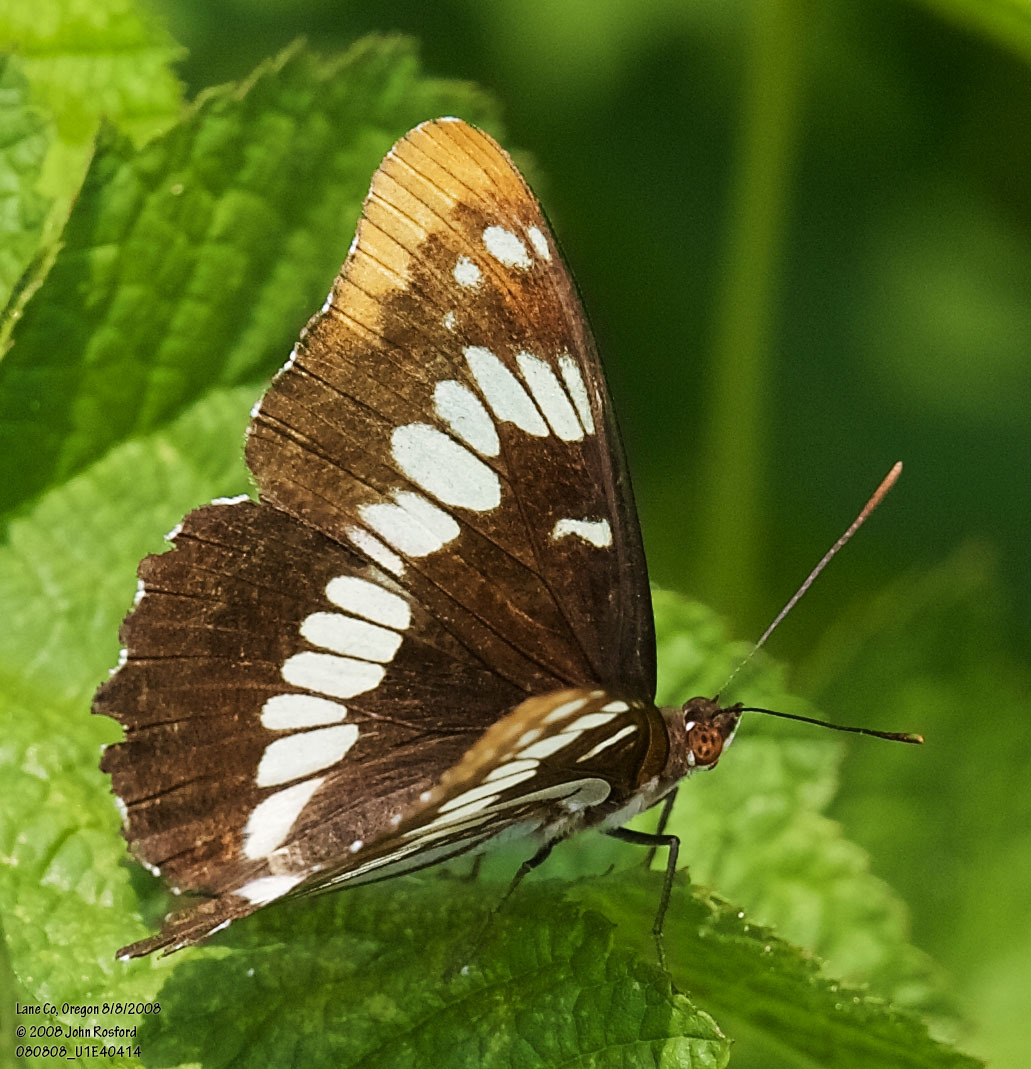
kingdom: Animalia
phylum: Arthropoda
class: Insecta
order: Lepidoptera
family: Nymphalidae
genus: Limenitis
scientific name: Limenitis lorquini
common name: Lorquin's admiral
